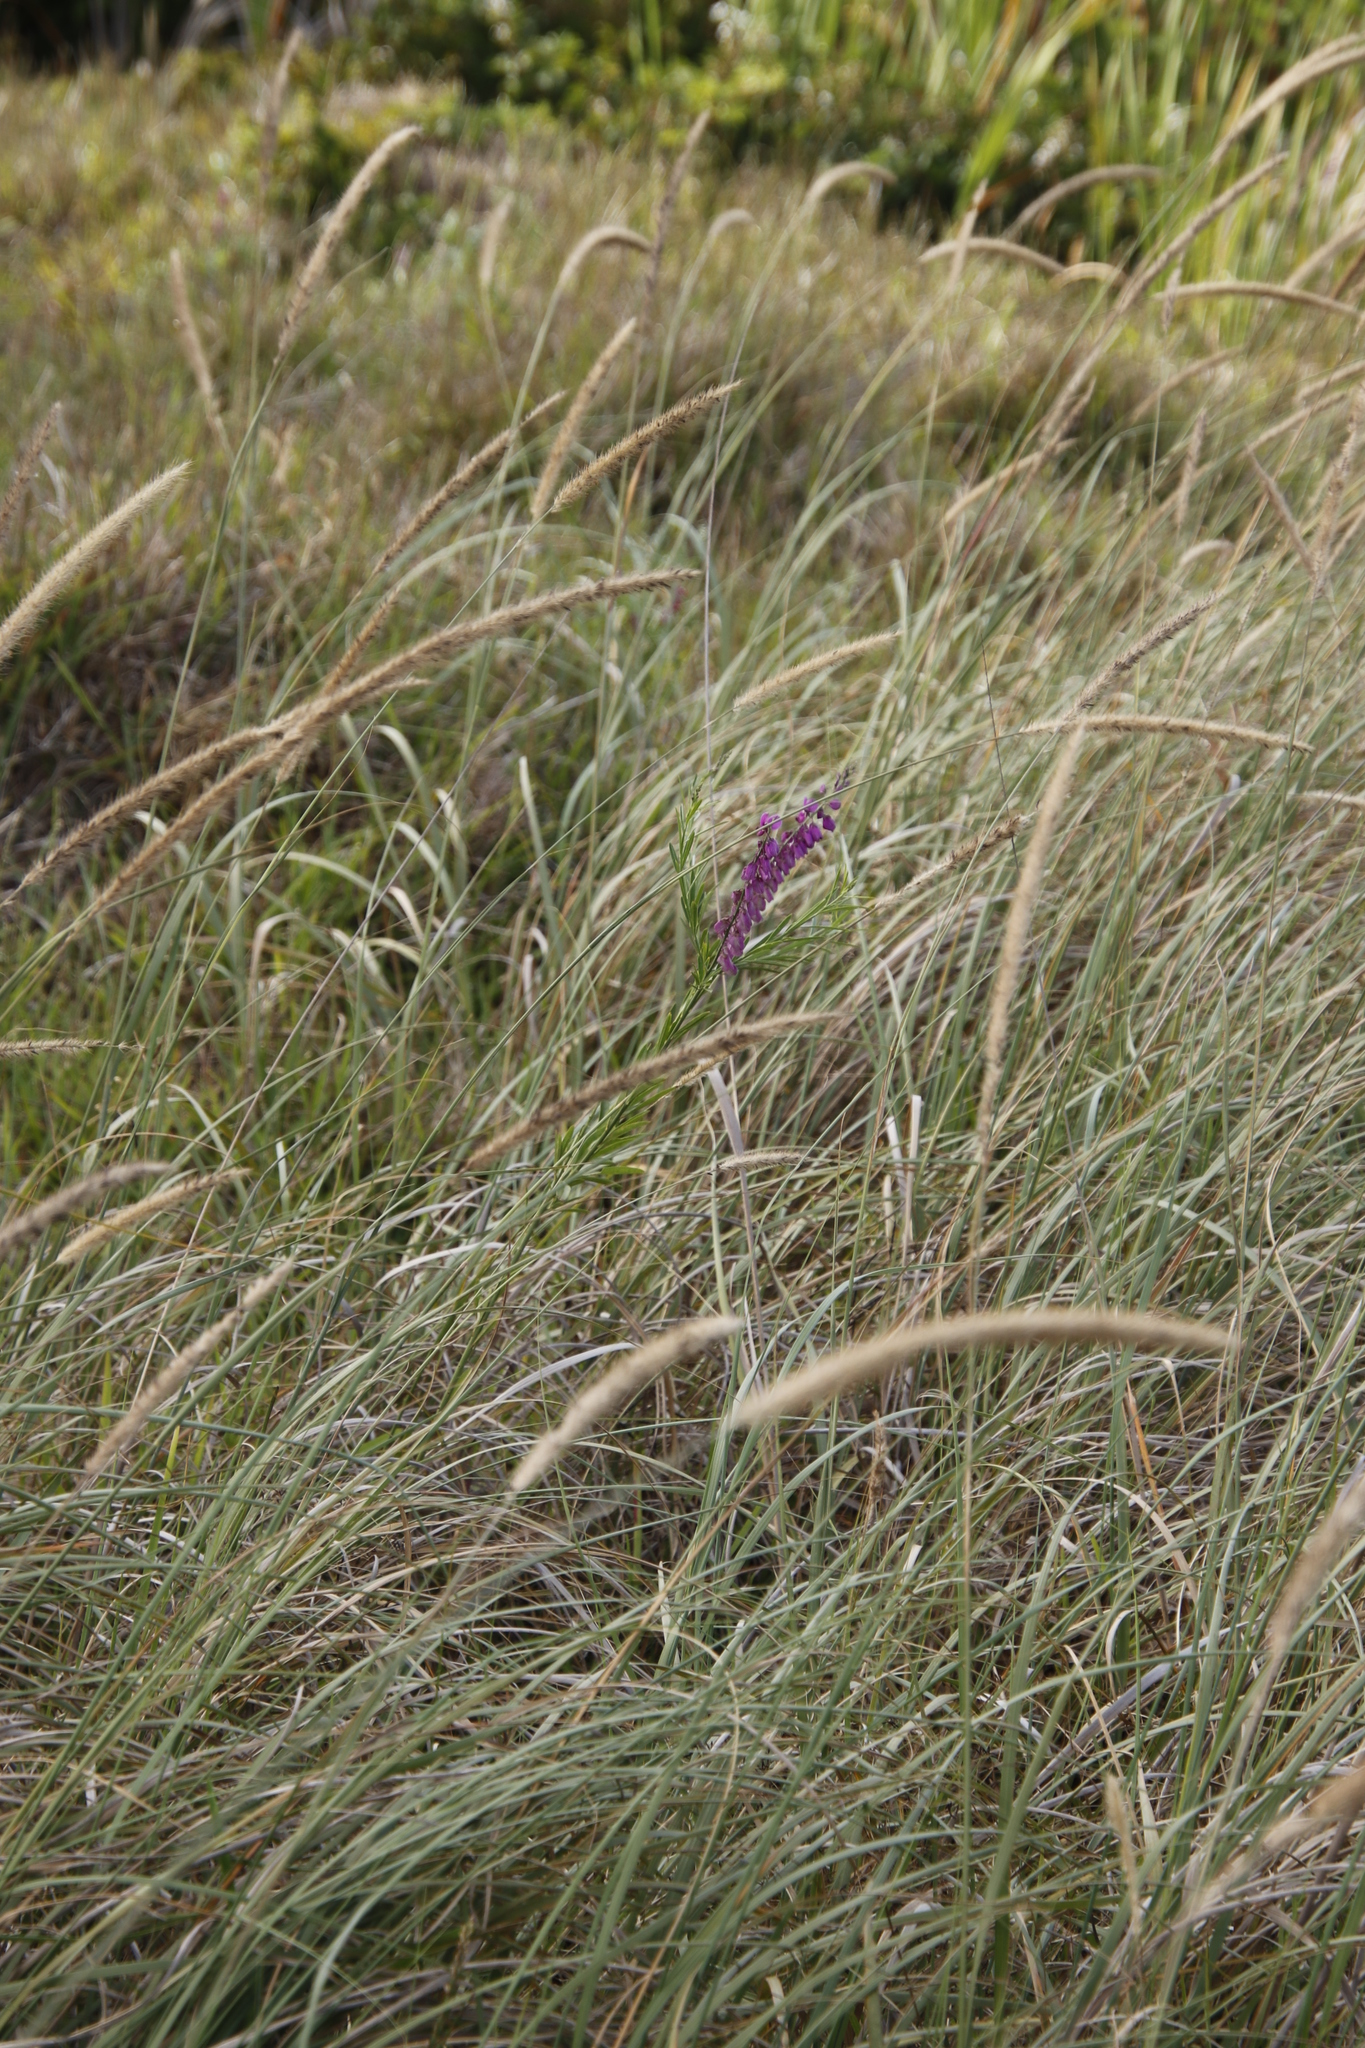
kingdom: Plantae
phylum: Tracheophyta
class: Liliopsida
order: Poales
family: Poaceae
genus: Cenchrus
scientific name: Cenchrus caudatus
